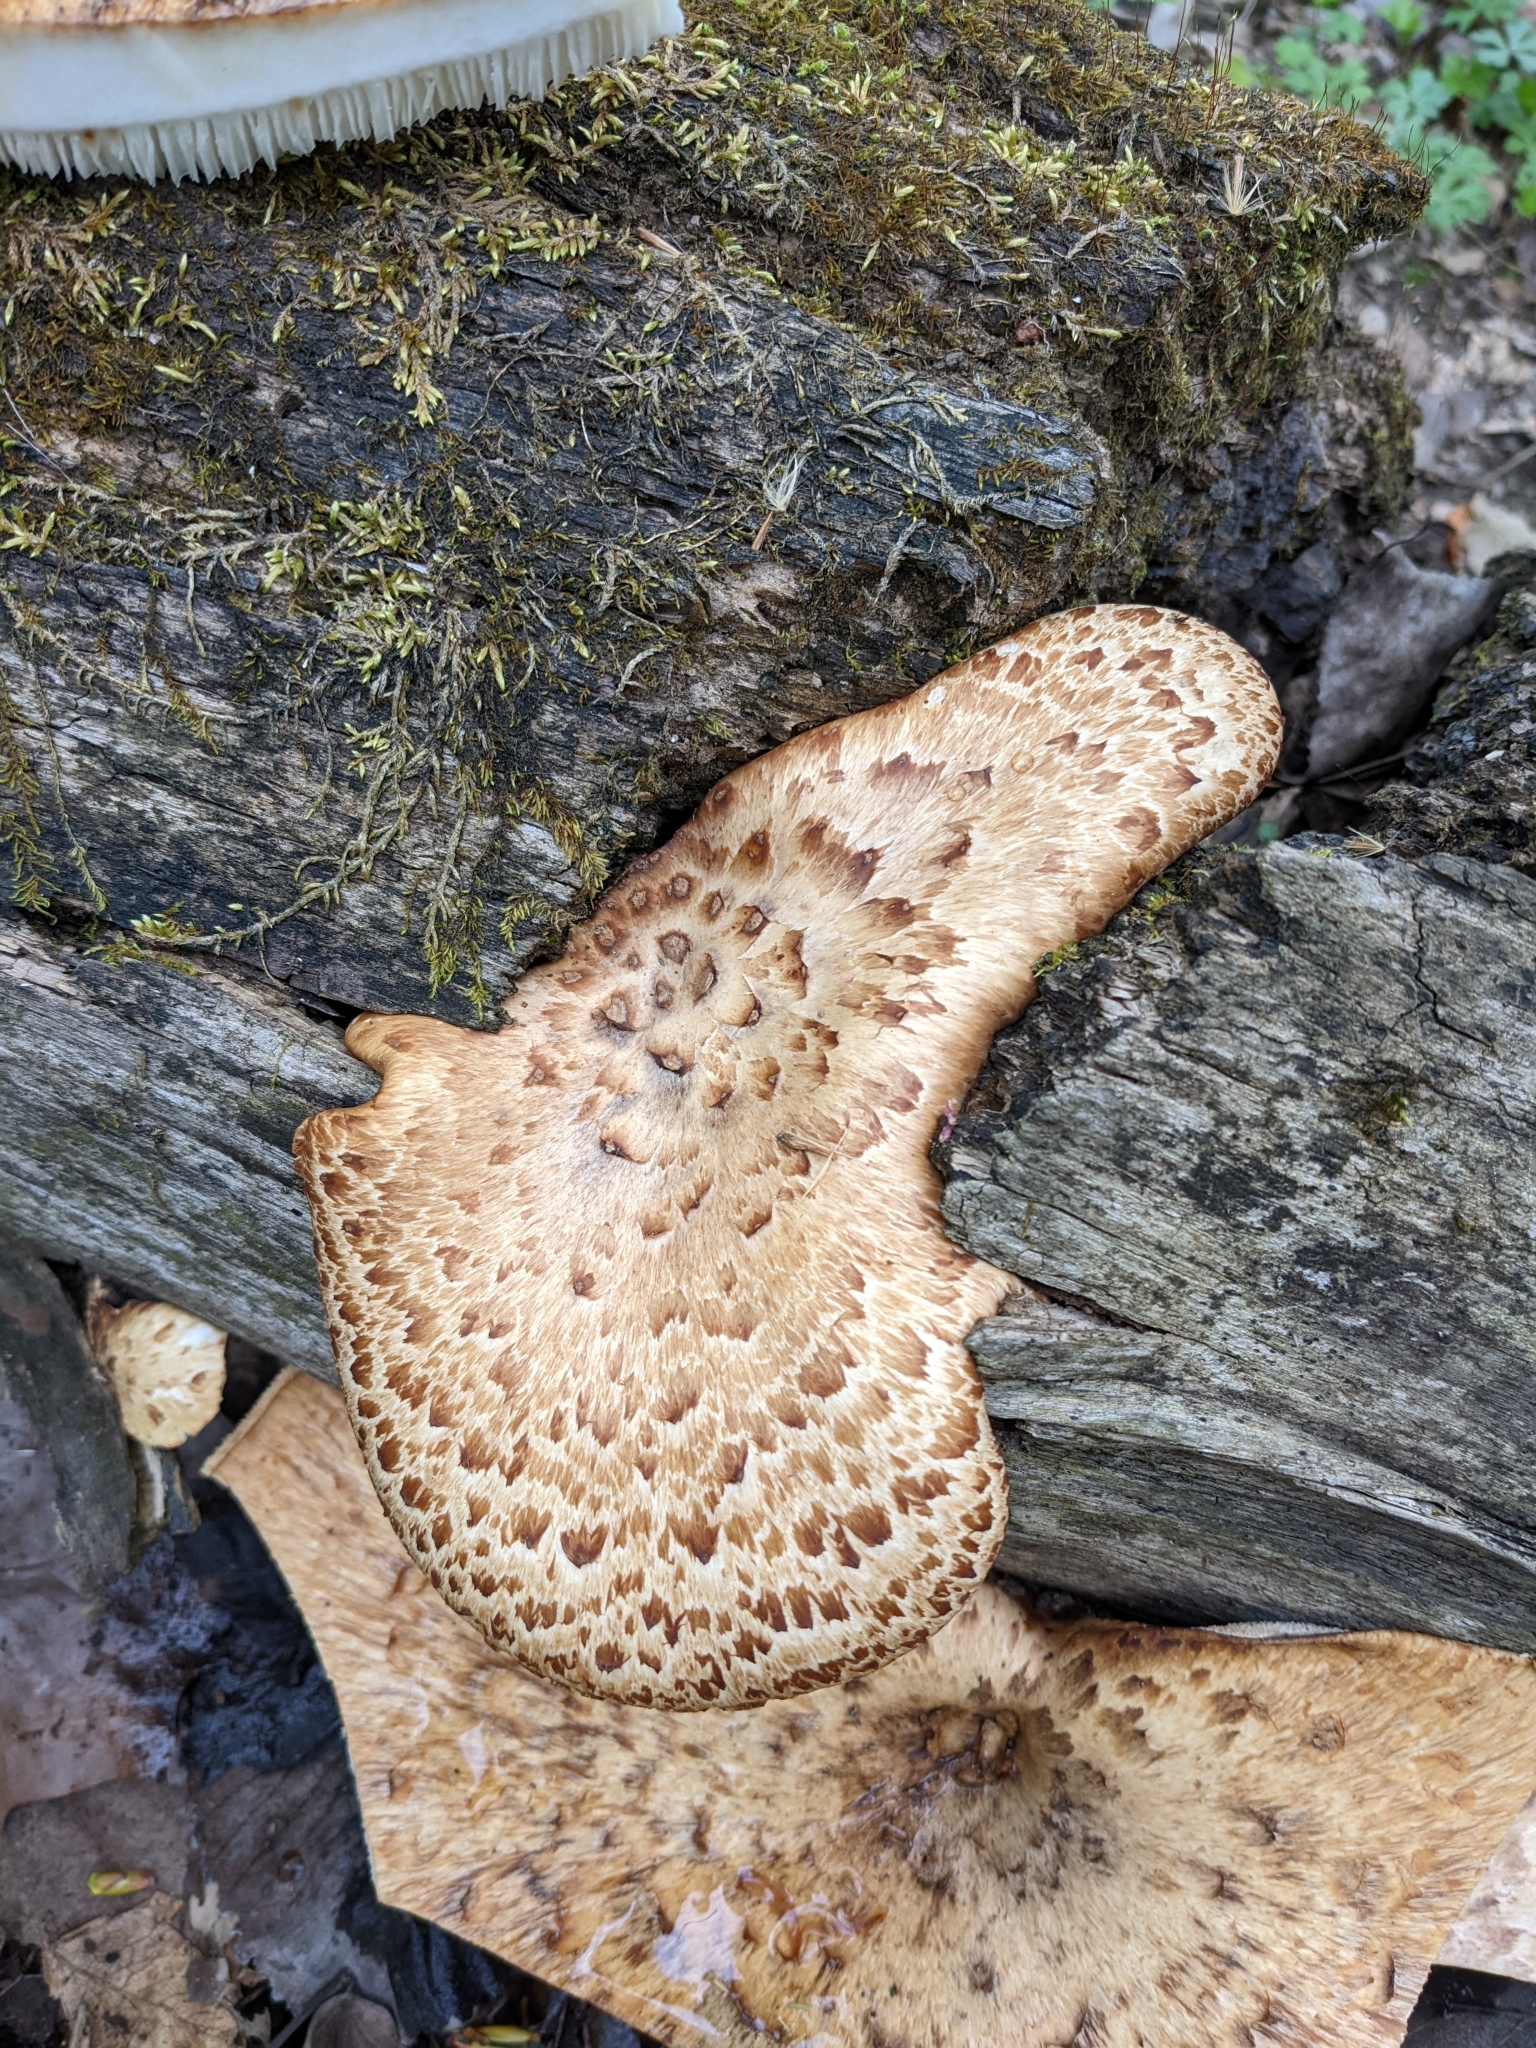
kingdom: Fungi
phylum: Basidiomycota
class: Agaricomycetes
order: Polyporales
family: Polyporaceae
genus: Cerioporus
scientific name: Cerioporus squamosus
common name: Dryad's saddle
